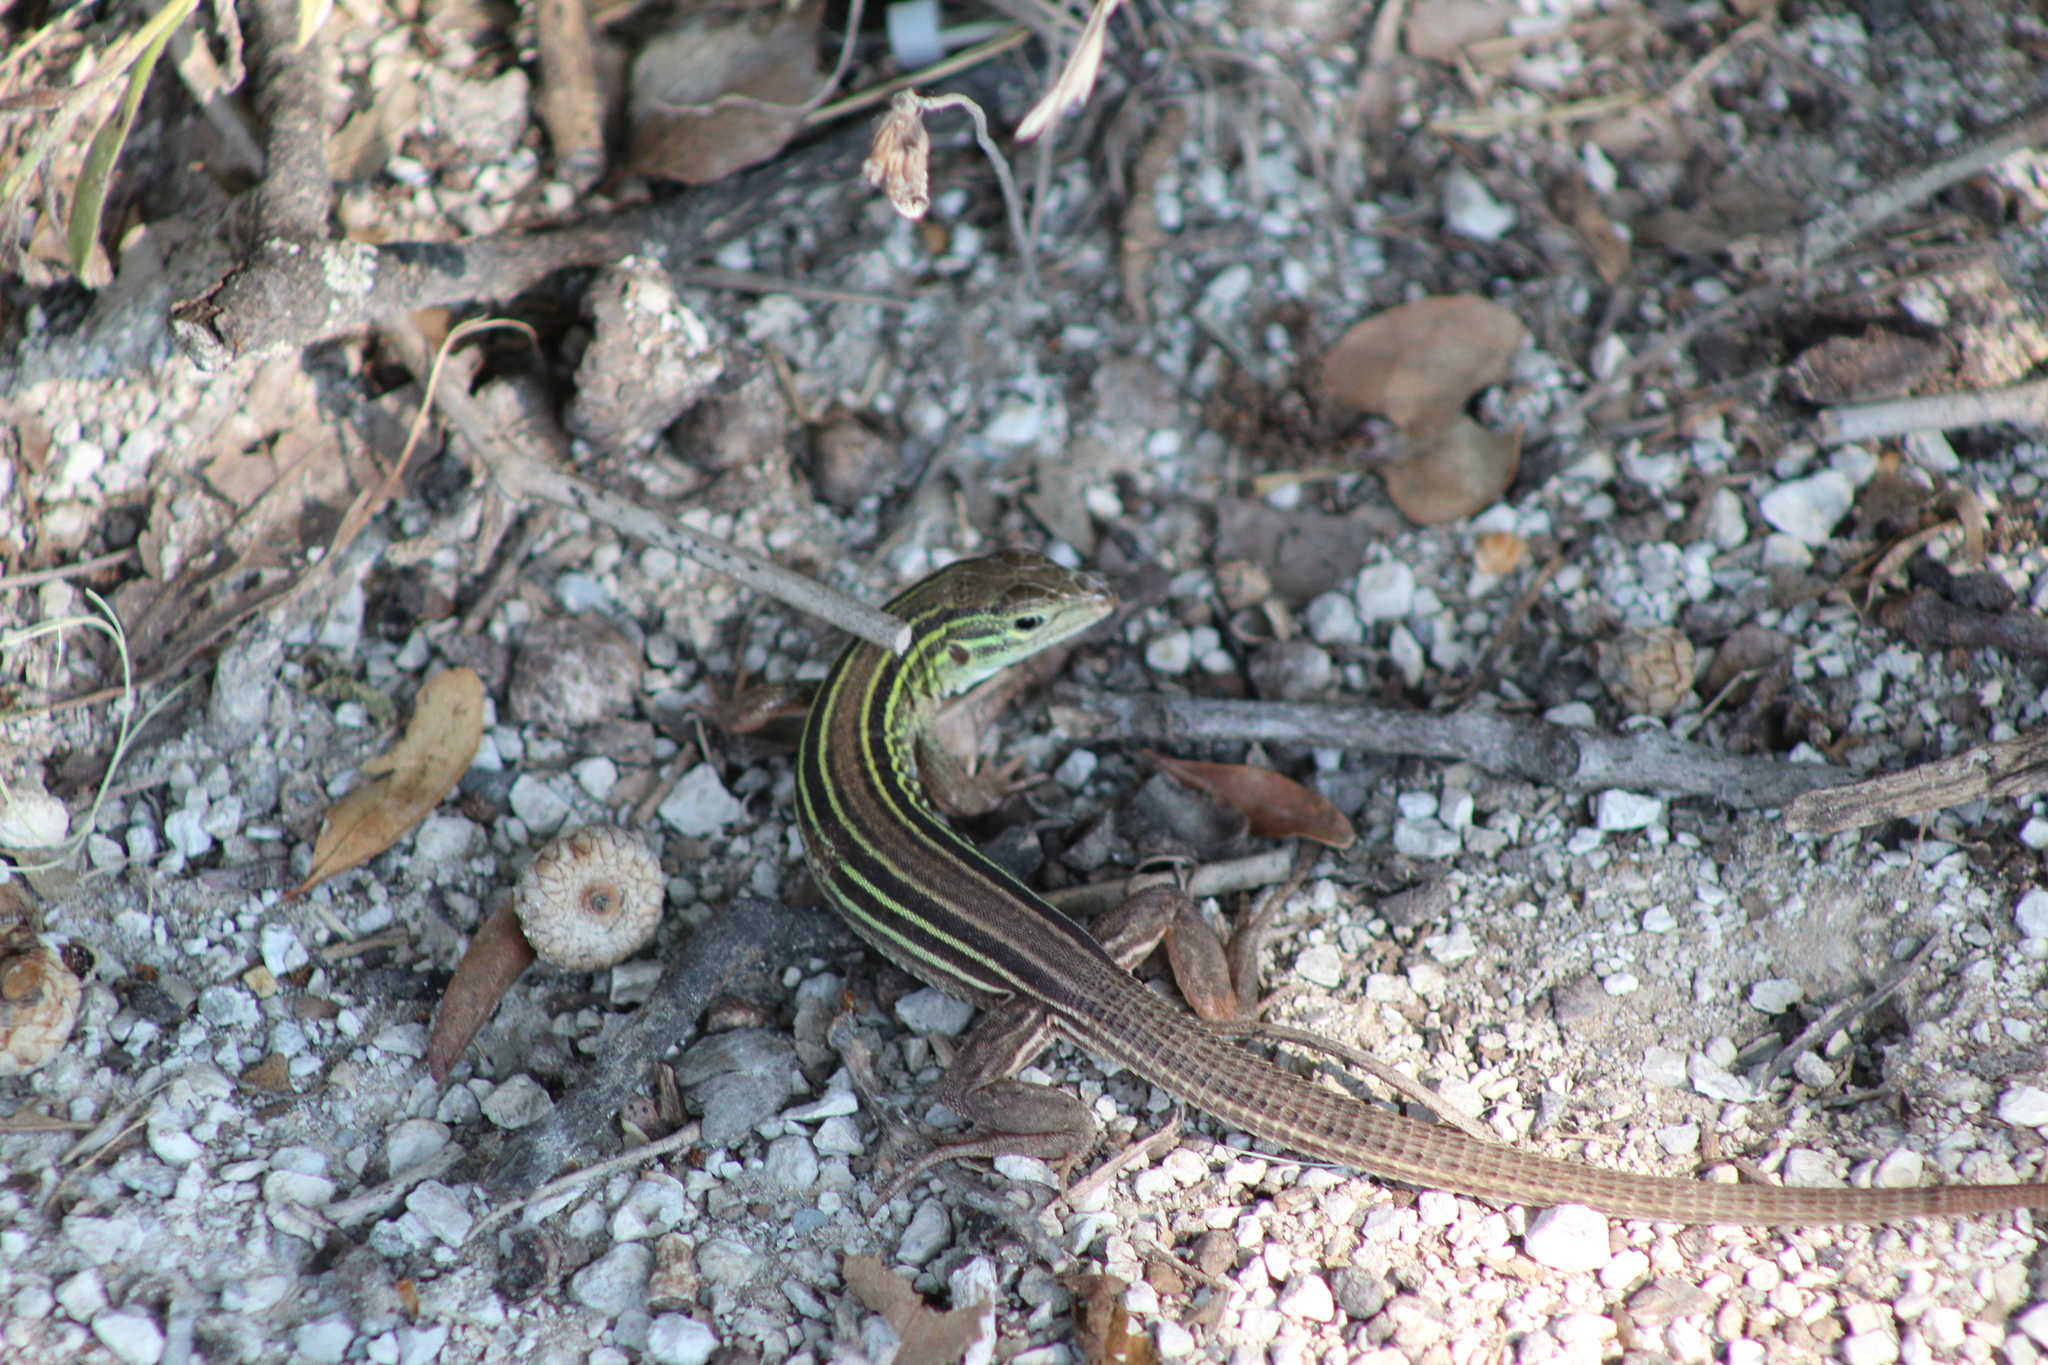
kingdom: Animalia
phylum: Chordata
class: Squamata
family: Teiidae
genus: Aspidoscelis
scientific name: Aspidoscelis sexlineatus
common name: Six-lined racerunner
